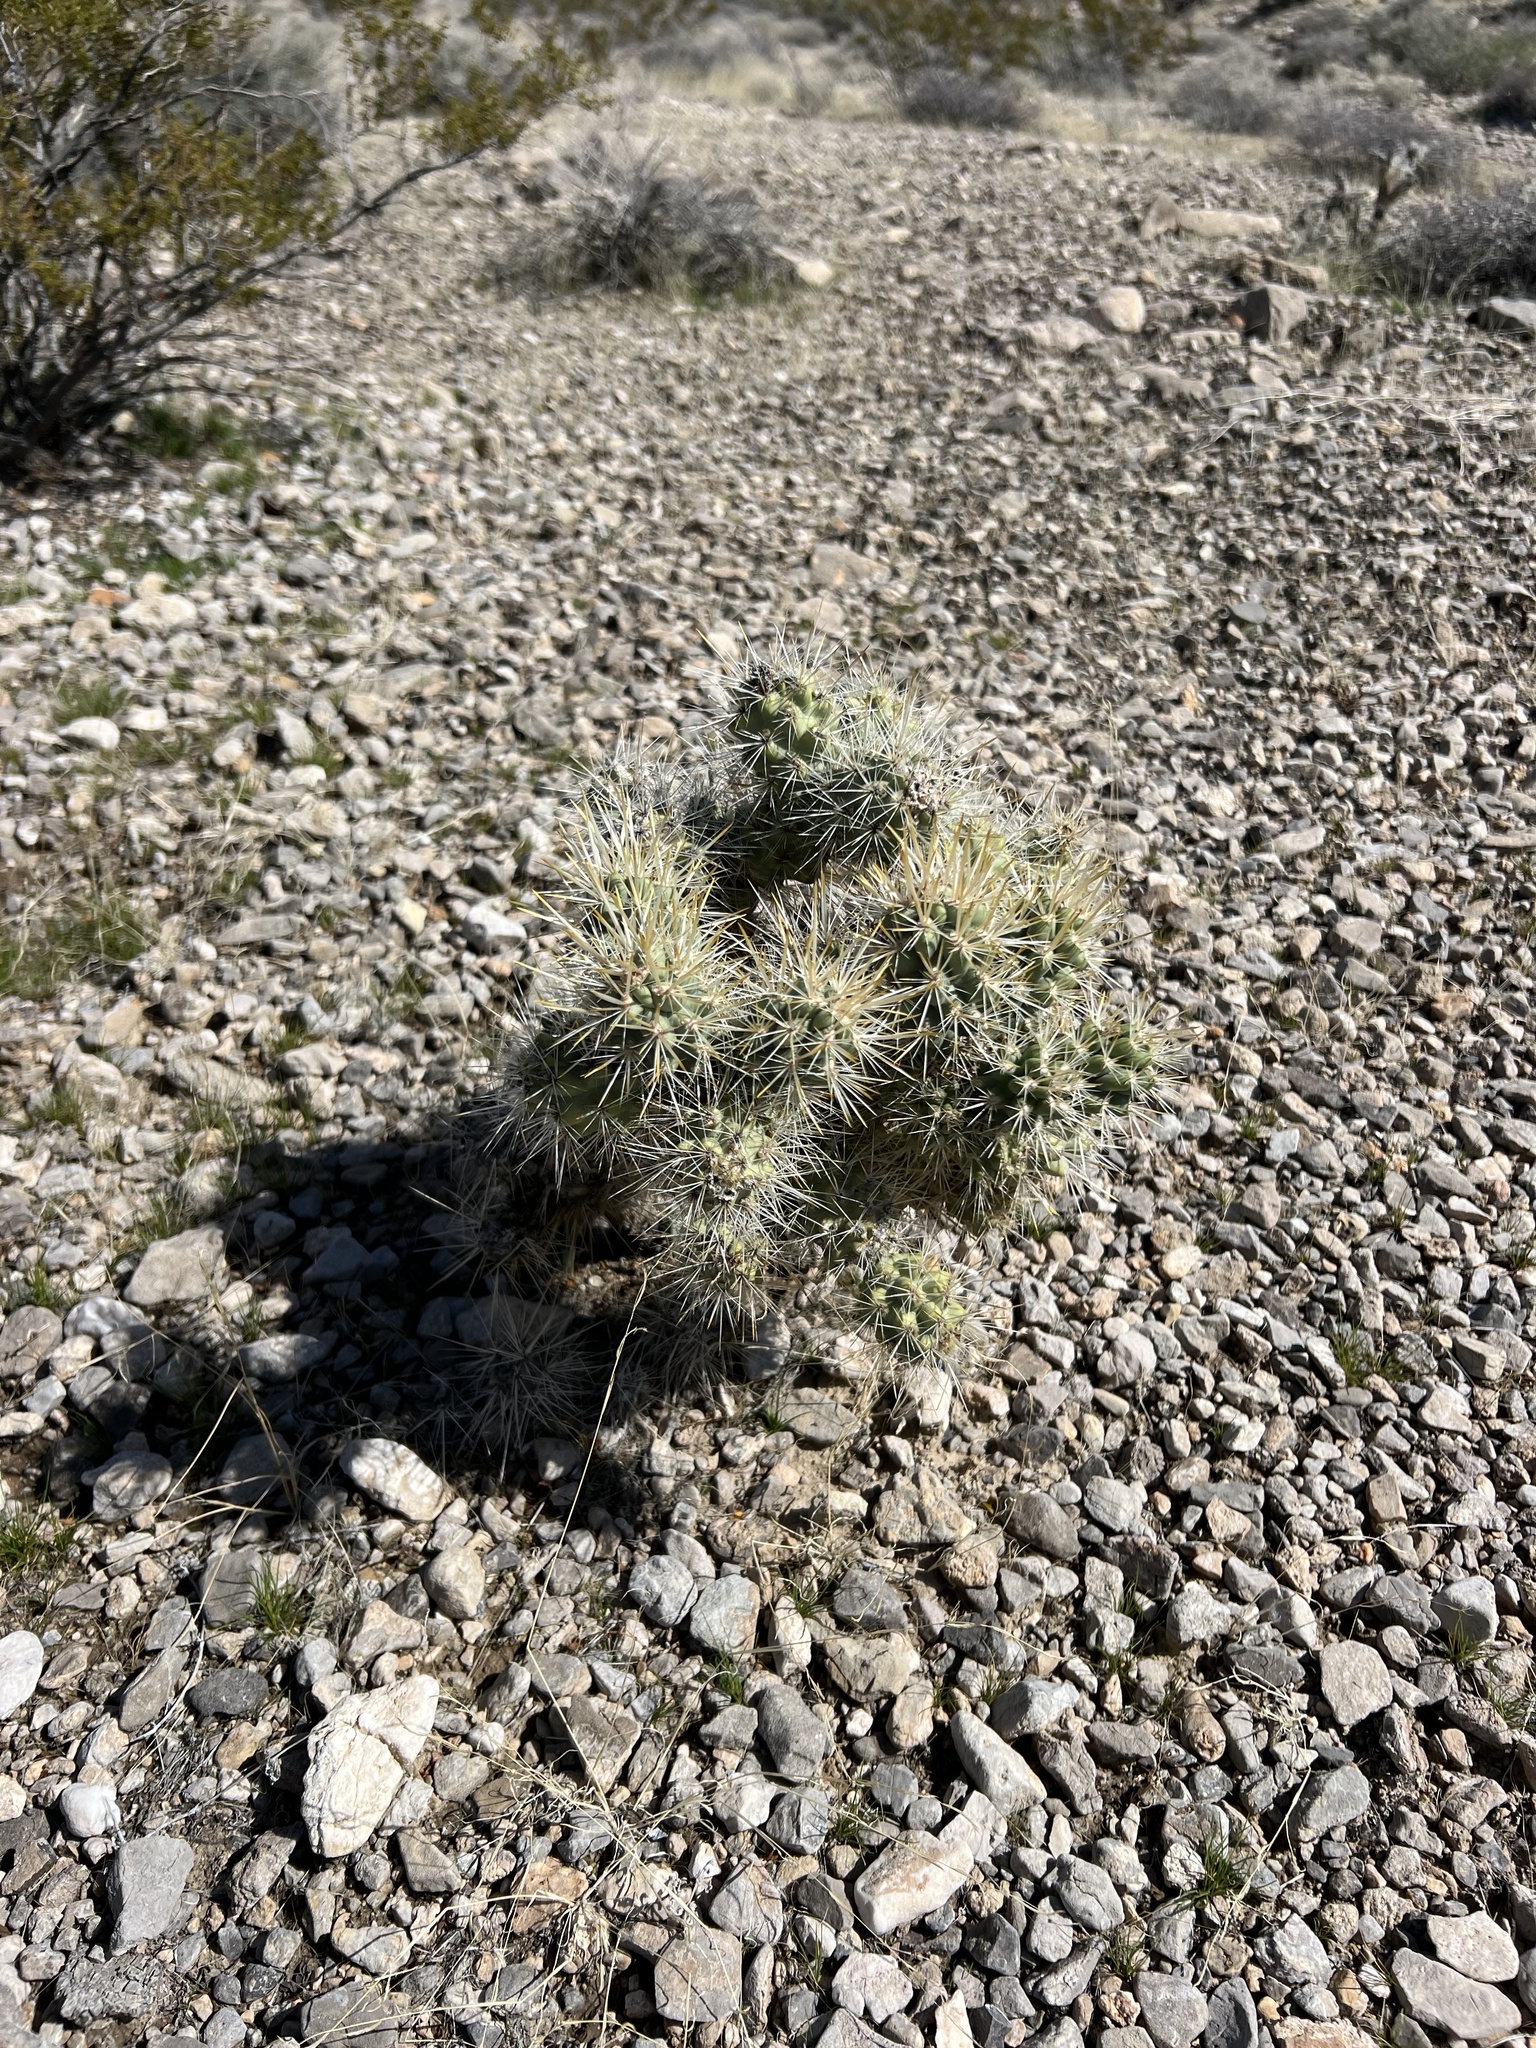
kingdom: Plantae
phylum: Tracheophyta
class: Magnoliopsida
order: Caryophyllales
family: Cactaceae
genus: Cylindropuntia
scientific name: Cylindropuntia echinocarpa
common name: Ground cholla
